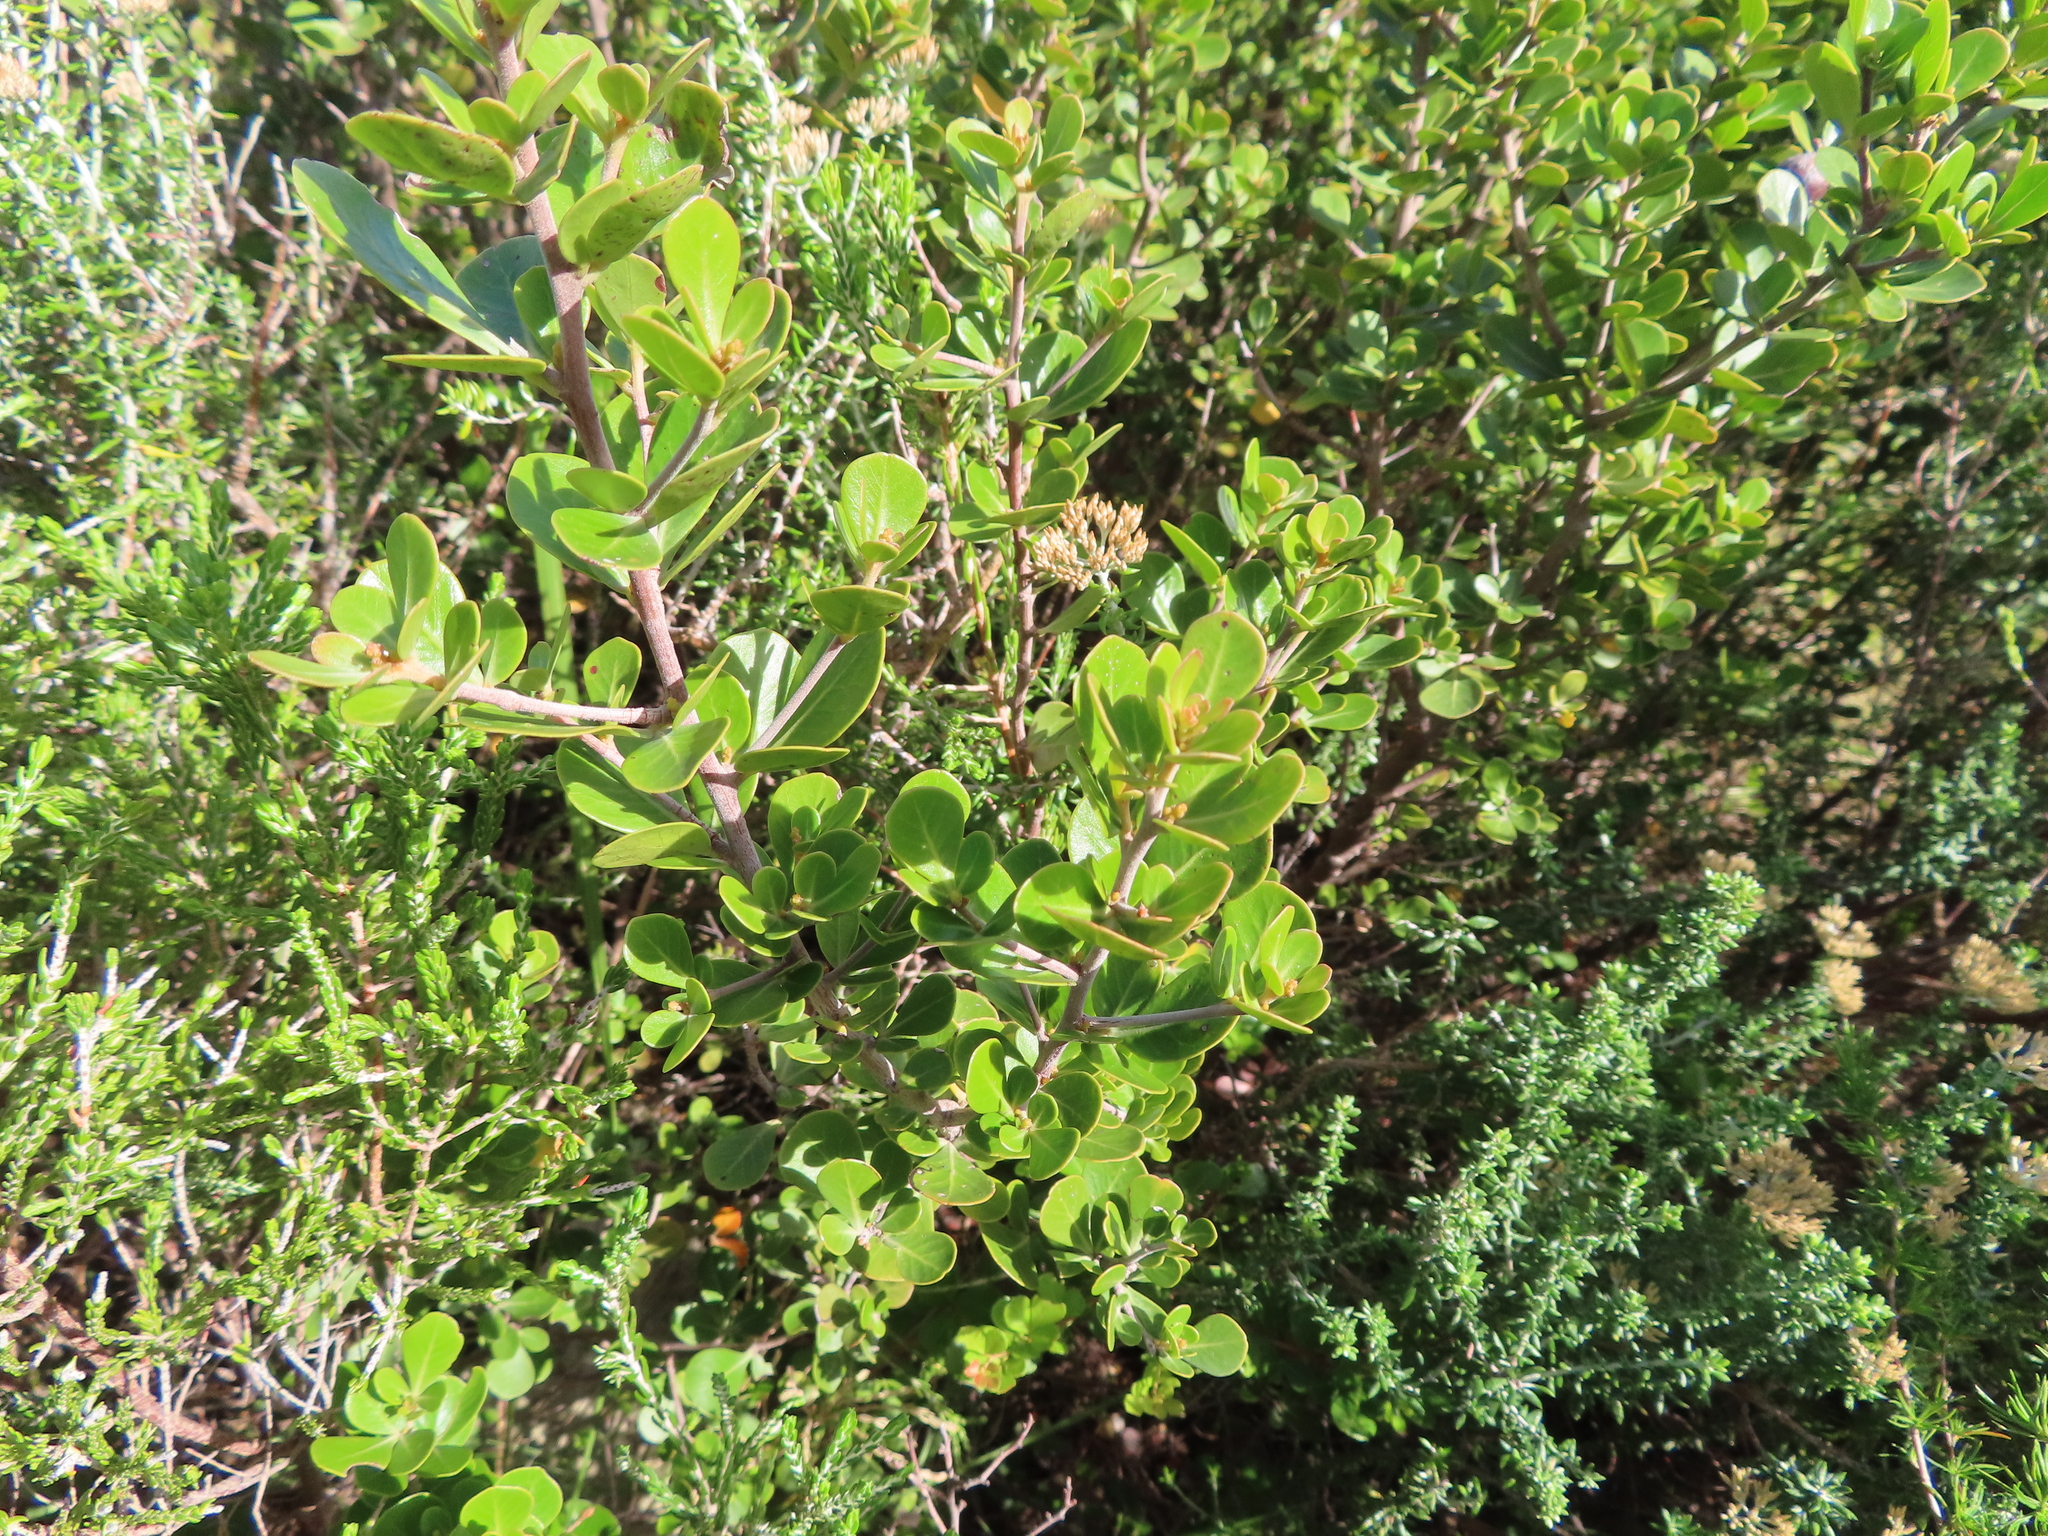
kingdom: Plantae
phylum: Tracheophyta
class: Magnoliopsida
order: Sapindales
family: Anacardiaceae
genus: Searsia
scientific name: Searsia lucida
